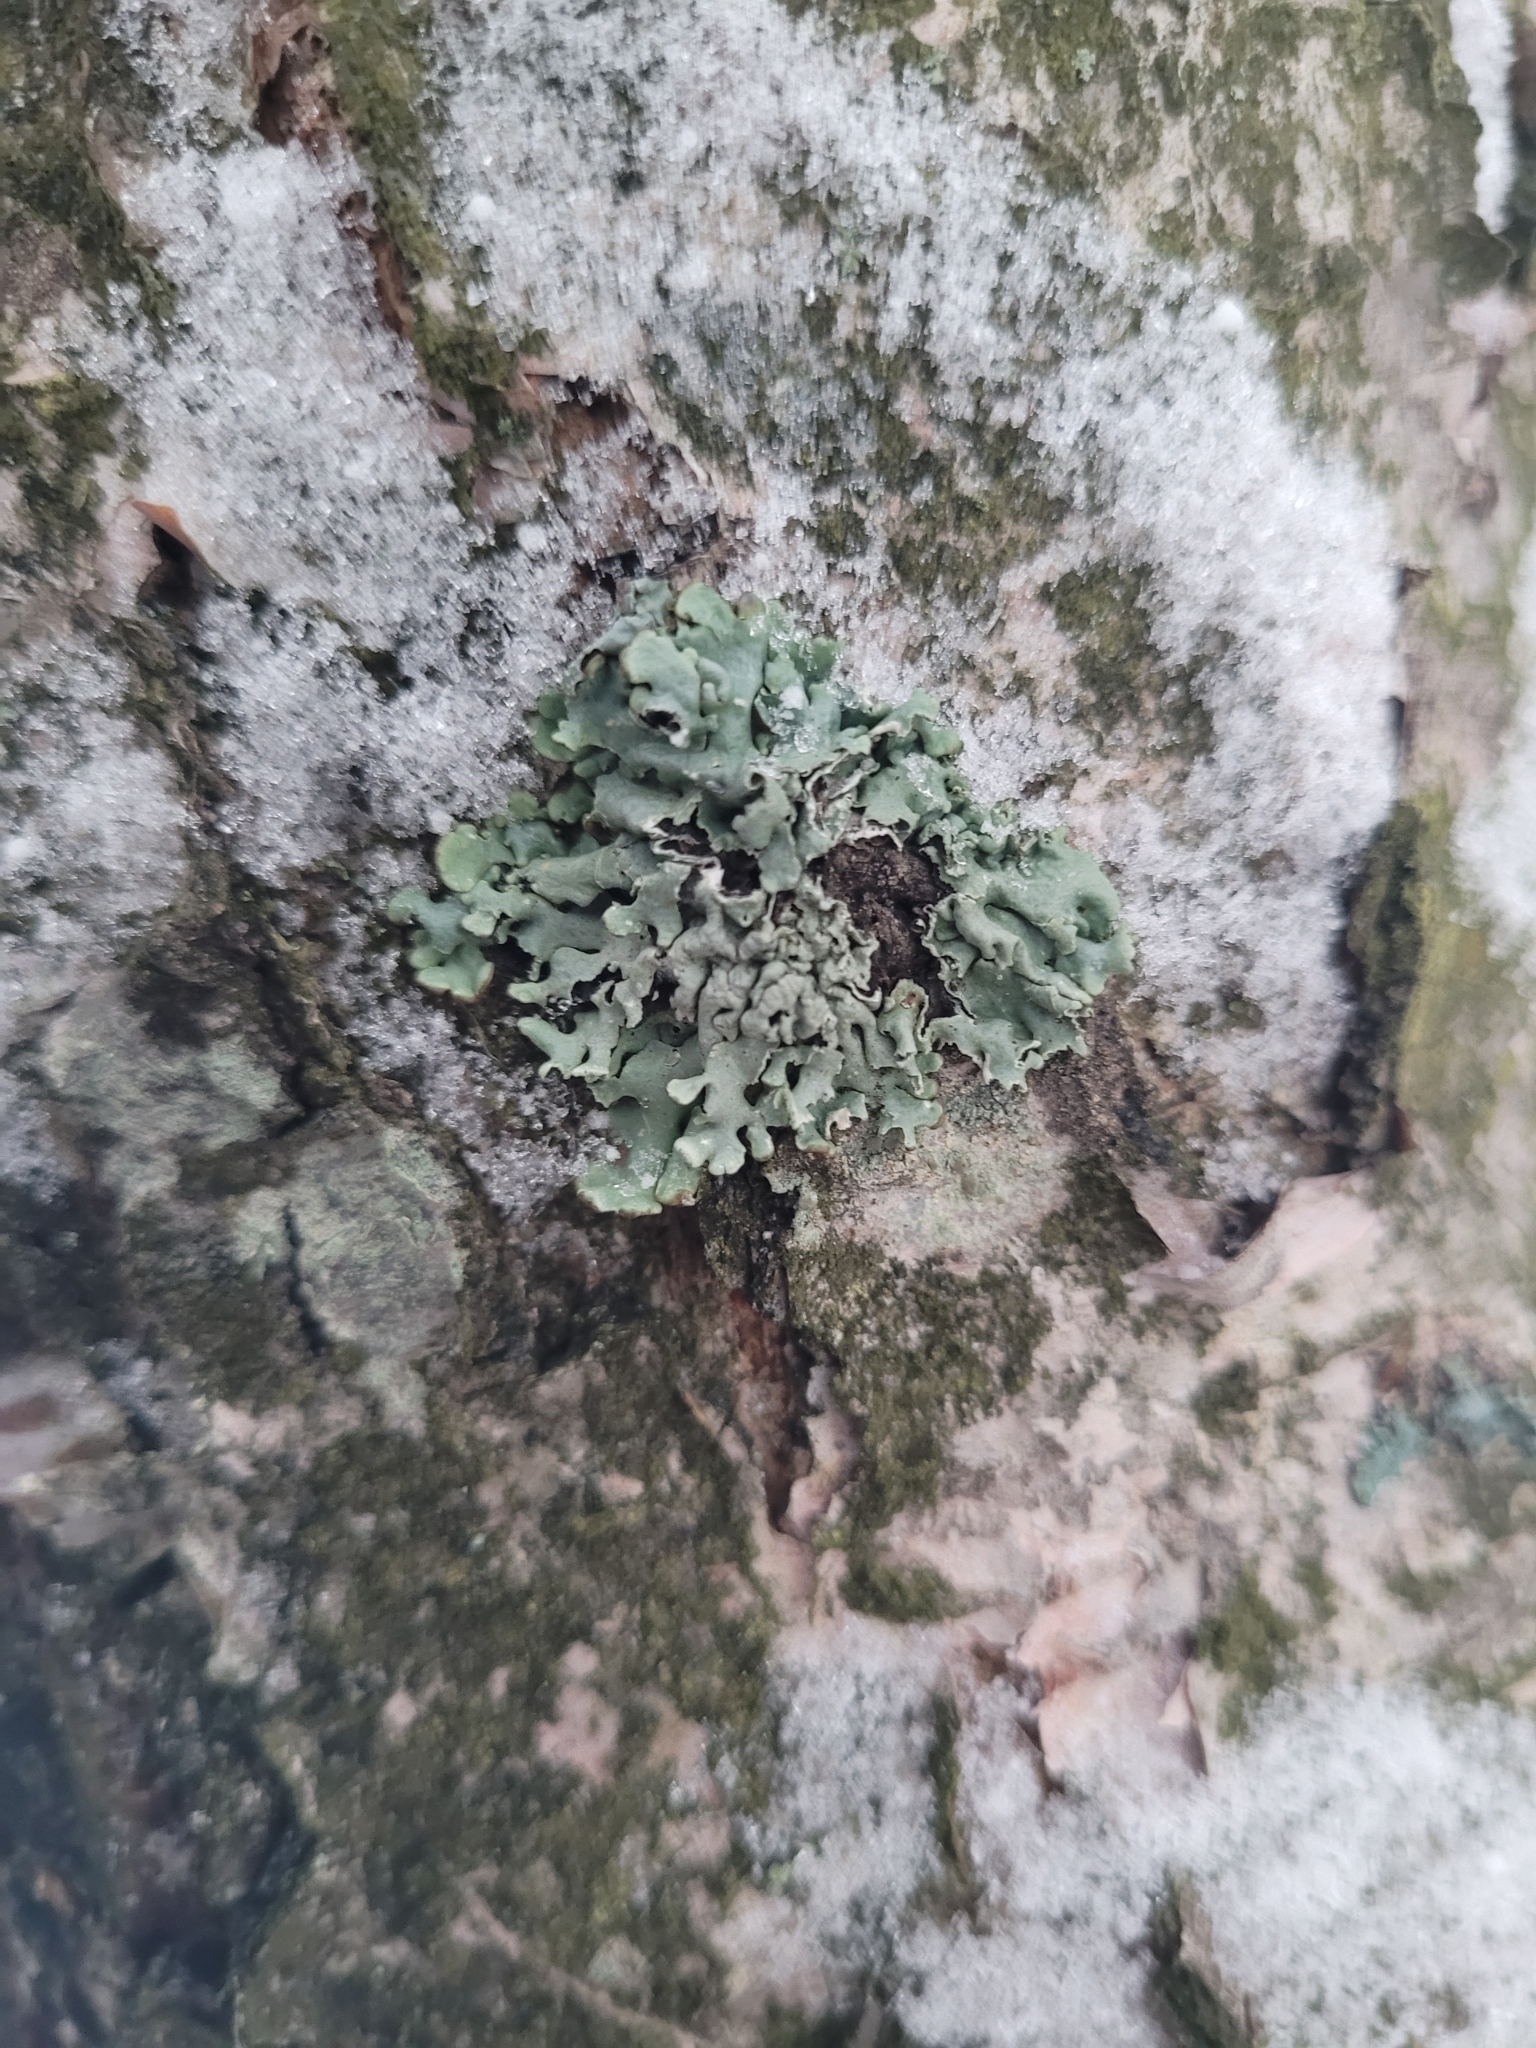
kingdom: Fungi
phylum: Ascomycota
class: Lecanoromycetes
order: Lecanorales
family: Parmeliaceae
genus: Hypogymnia
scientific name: Hypogymnia physodes
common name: Dark crottle
